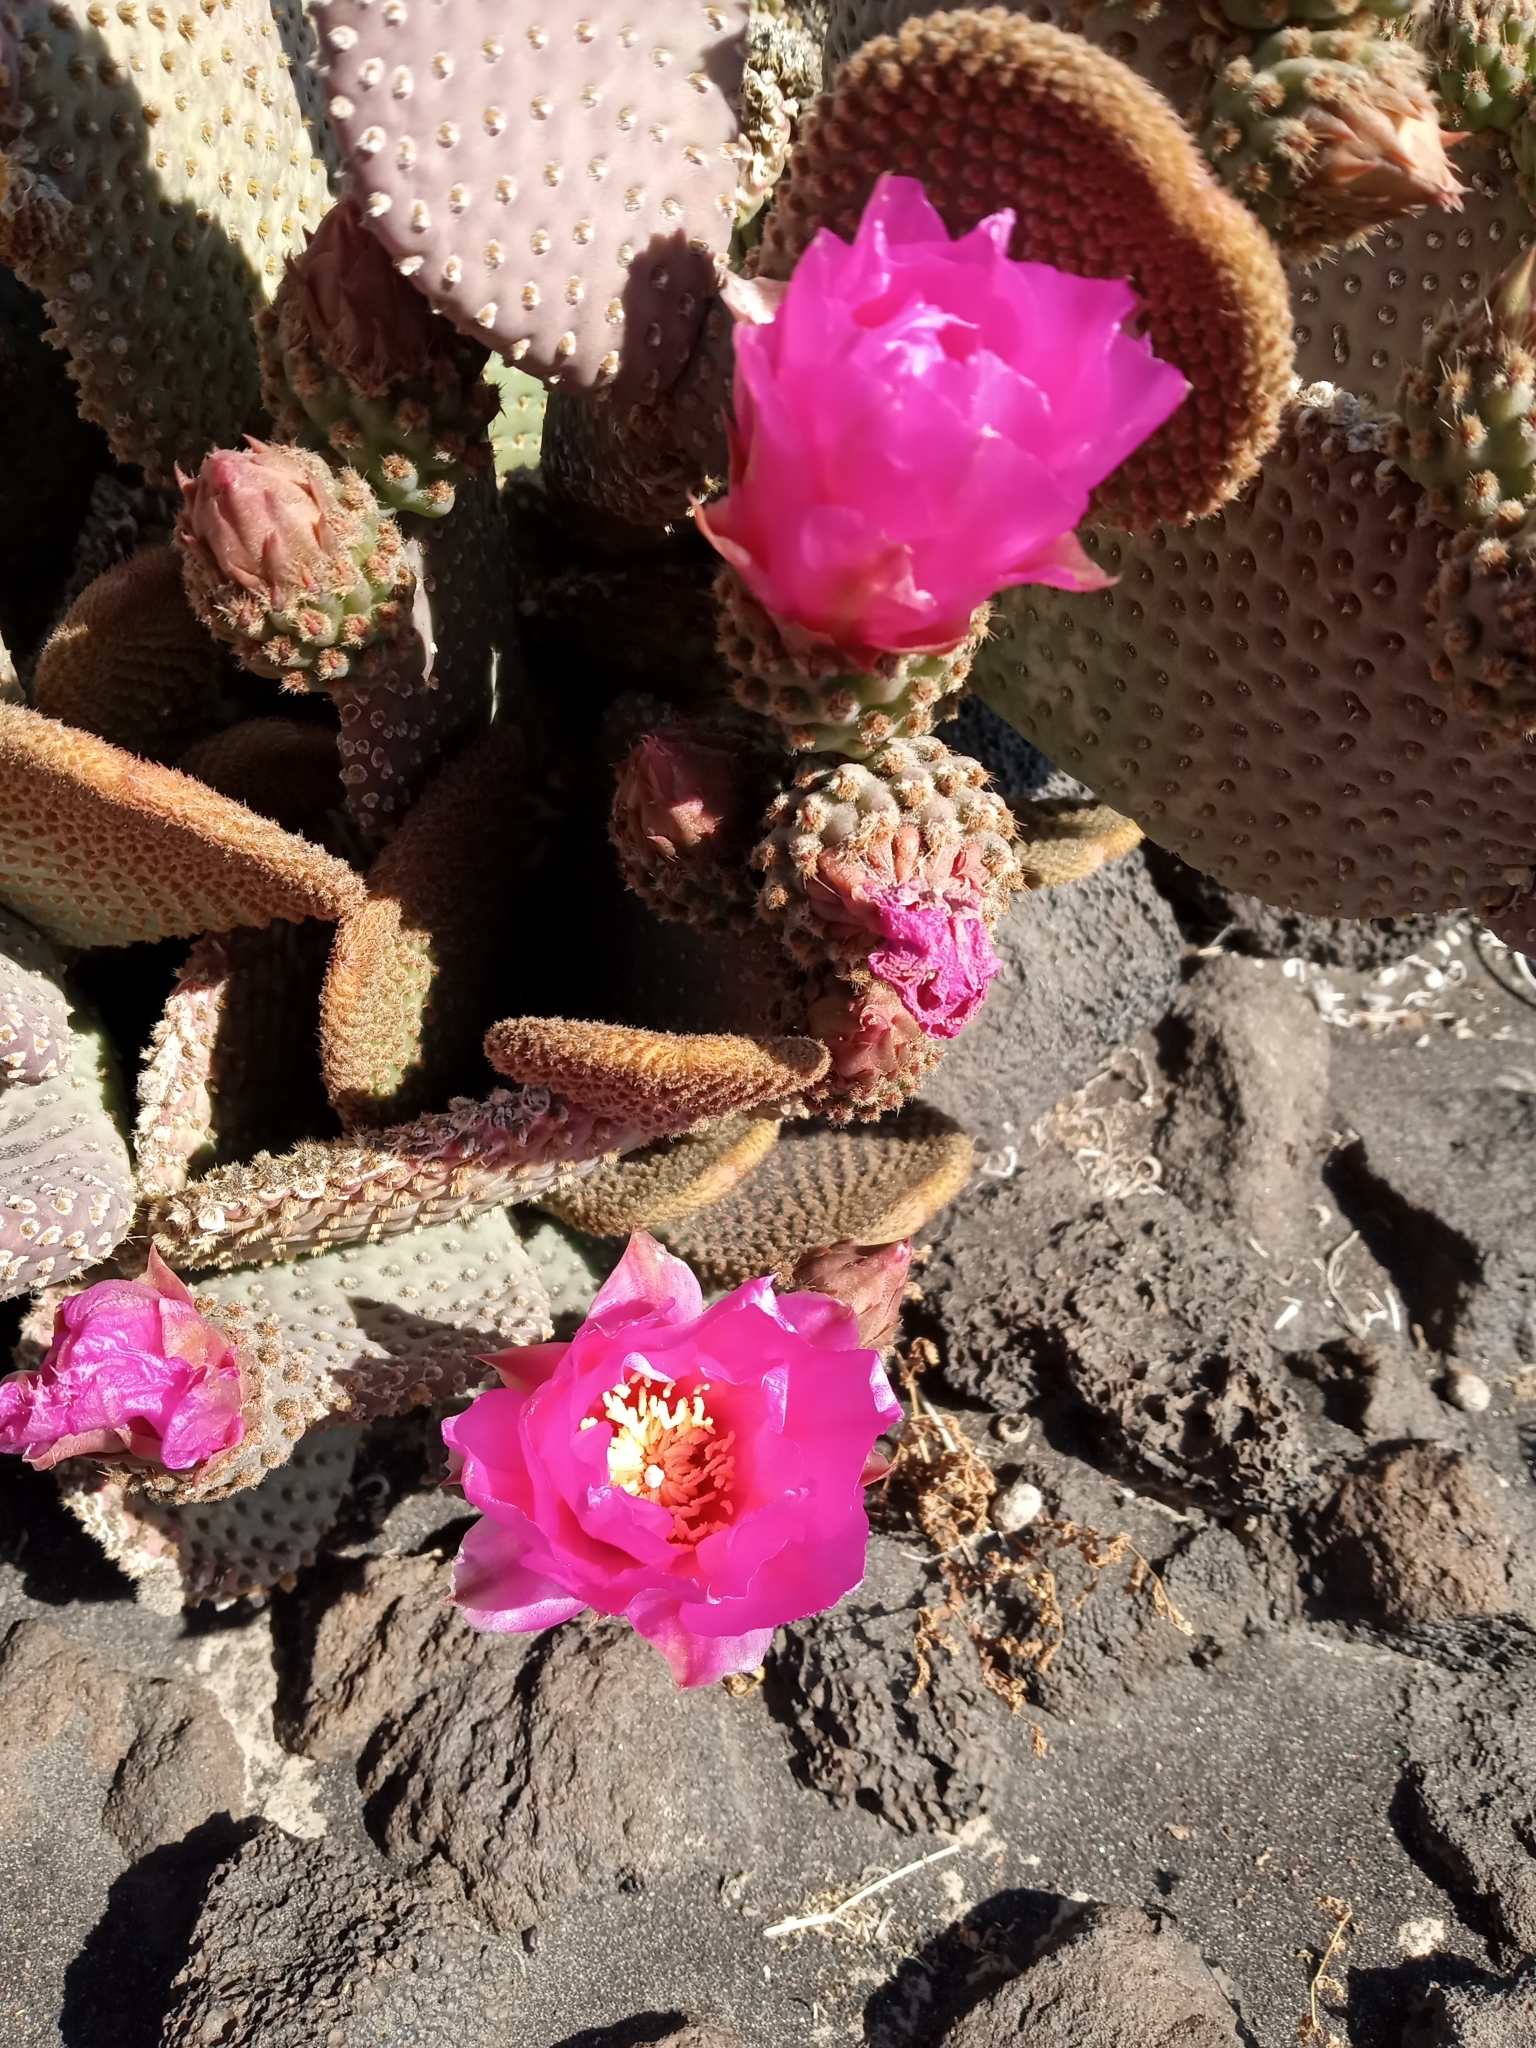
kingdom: Plantae
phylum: Tracheophyta
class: Magnoliopsida
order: Caryophyllales
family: Cactaceae
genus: Opuntia
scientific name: Opuntia basilaris
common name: Beavertail prickly-pear
